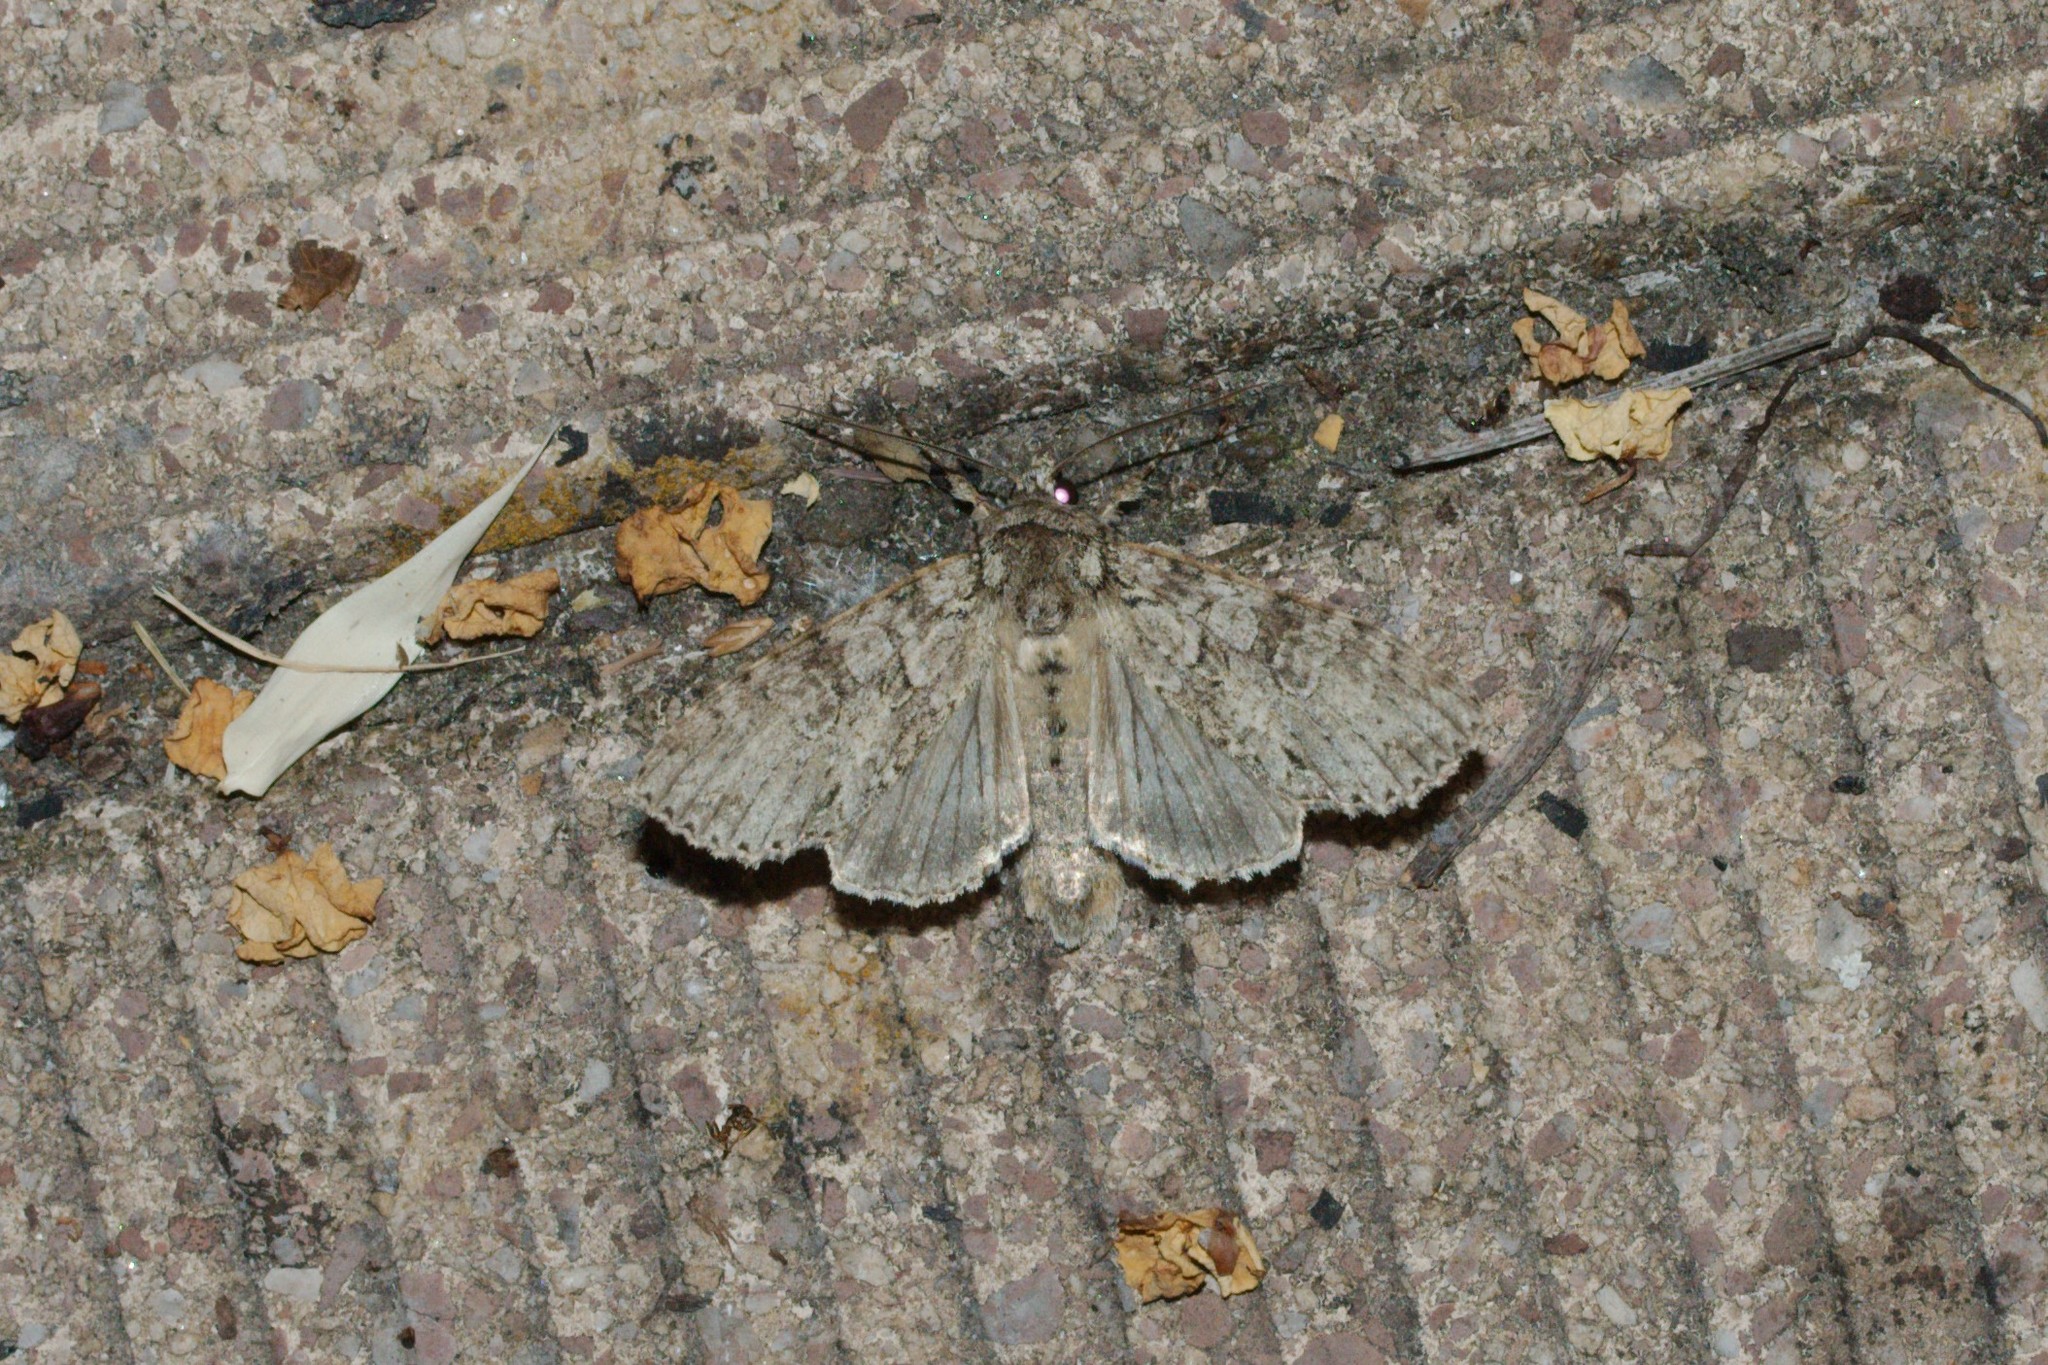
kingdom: Animalia
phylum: Arthropoda
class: Insecta
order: Lepidoptera
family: Noctuidae
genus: Polia
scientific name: Polia nebulosa
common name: Grey arches
